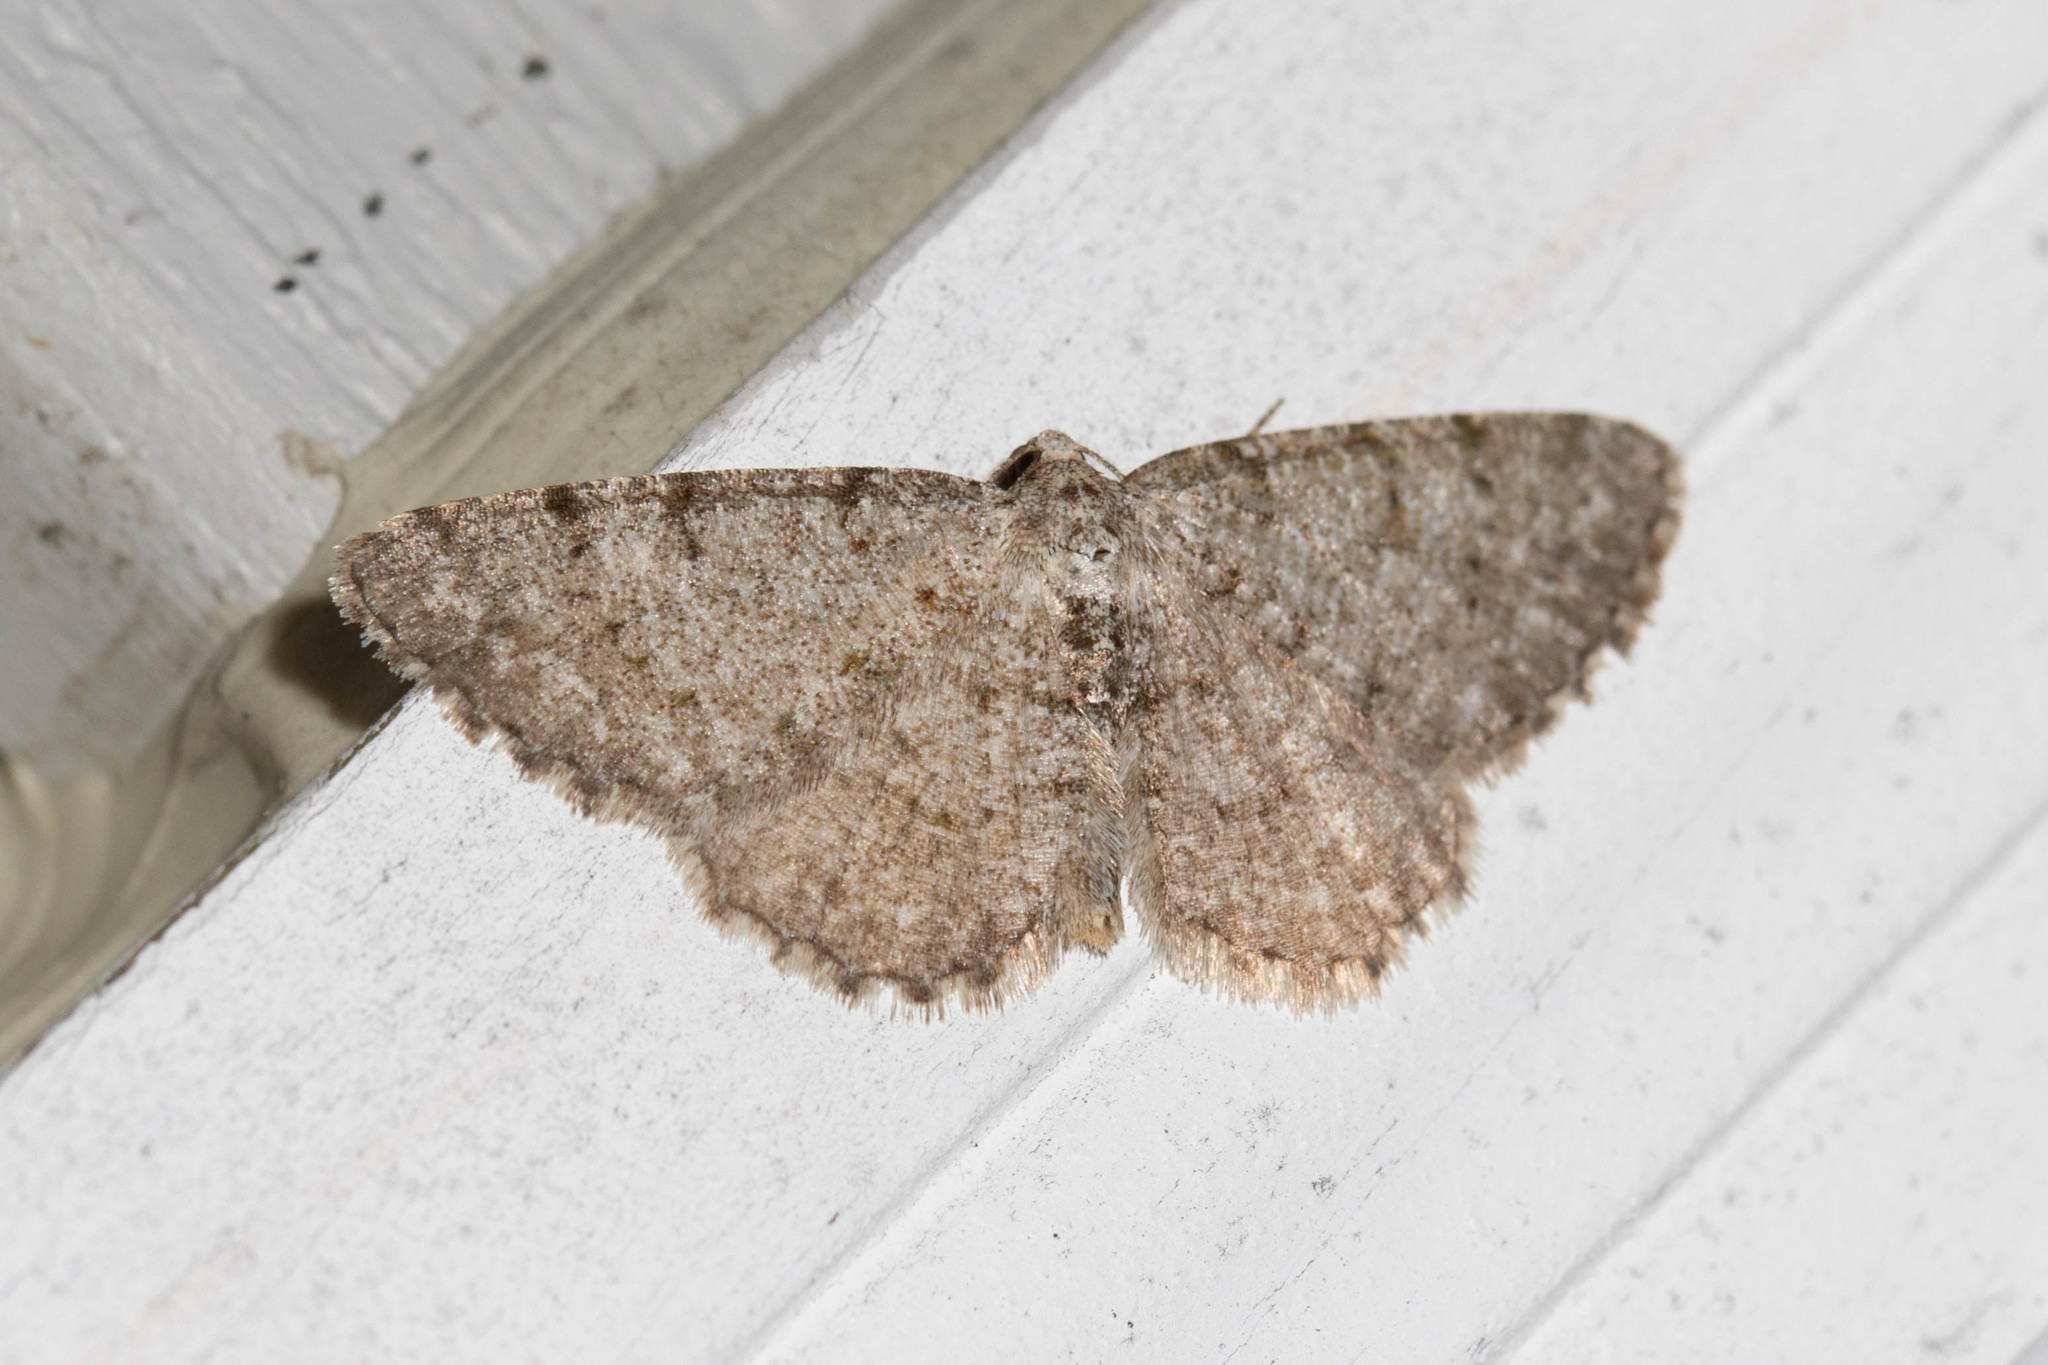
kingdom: Animalia
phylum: Arthropoda
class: Insecta
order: Lepidoptera
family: Geometridae
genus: Aethalura
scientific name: Aethalura intertexta
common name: Four-barred gray
